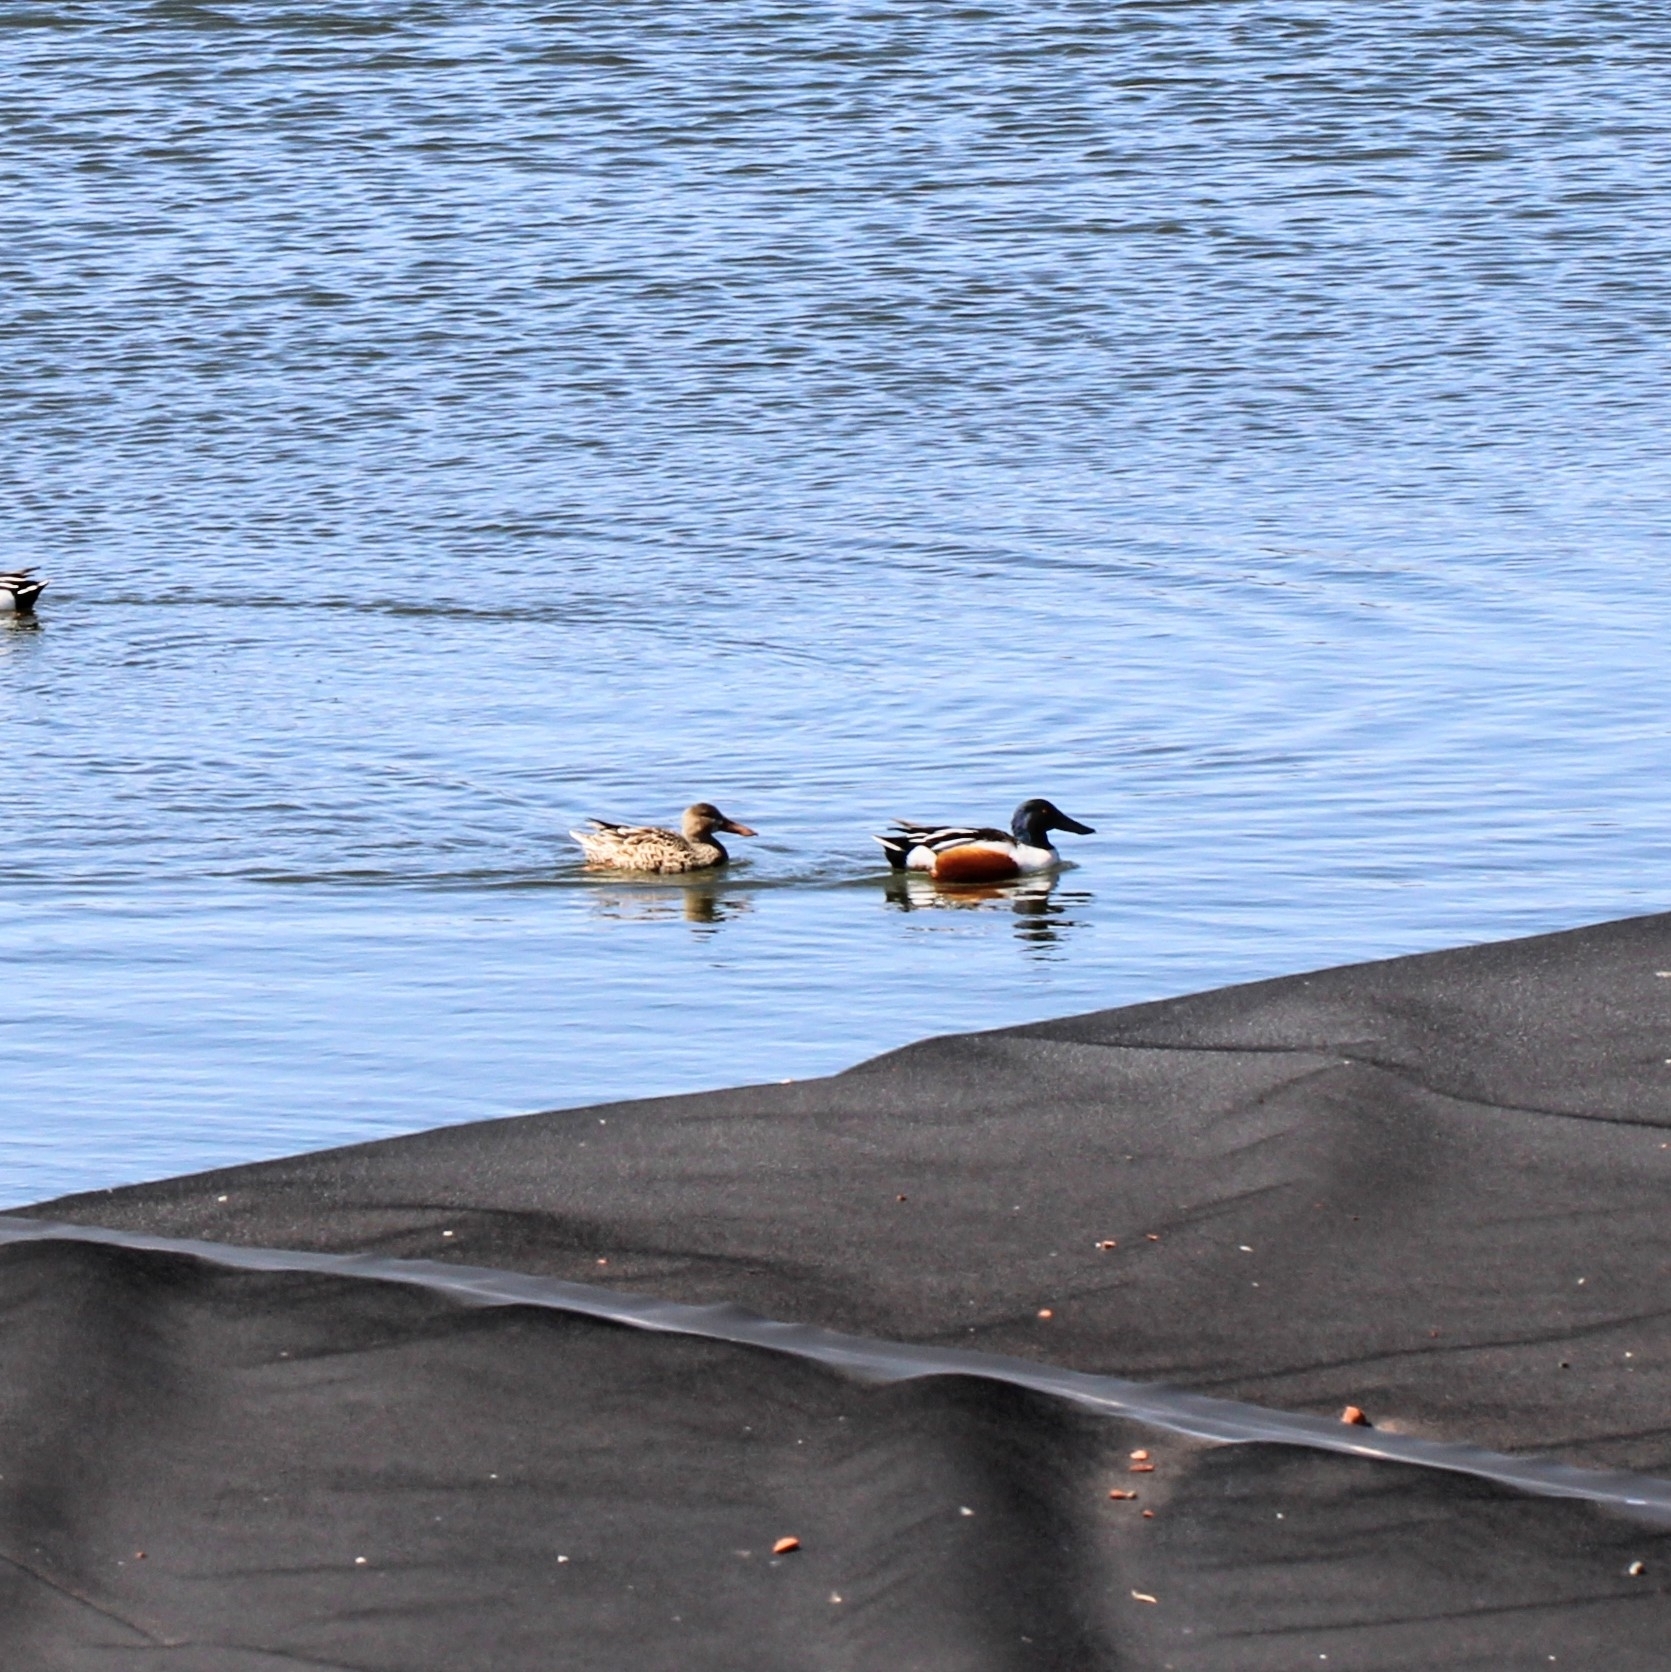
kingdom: Animalia
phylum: Chordata
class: Aves
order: Anseriformes
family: Anatidae
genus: Spatula
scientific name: Spatula clypeata
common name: Northern shoveler
